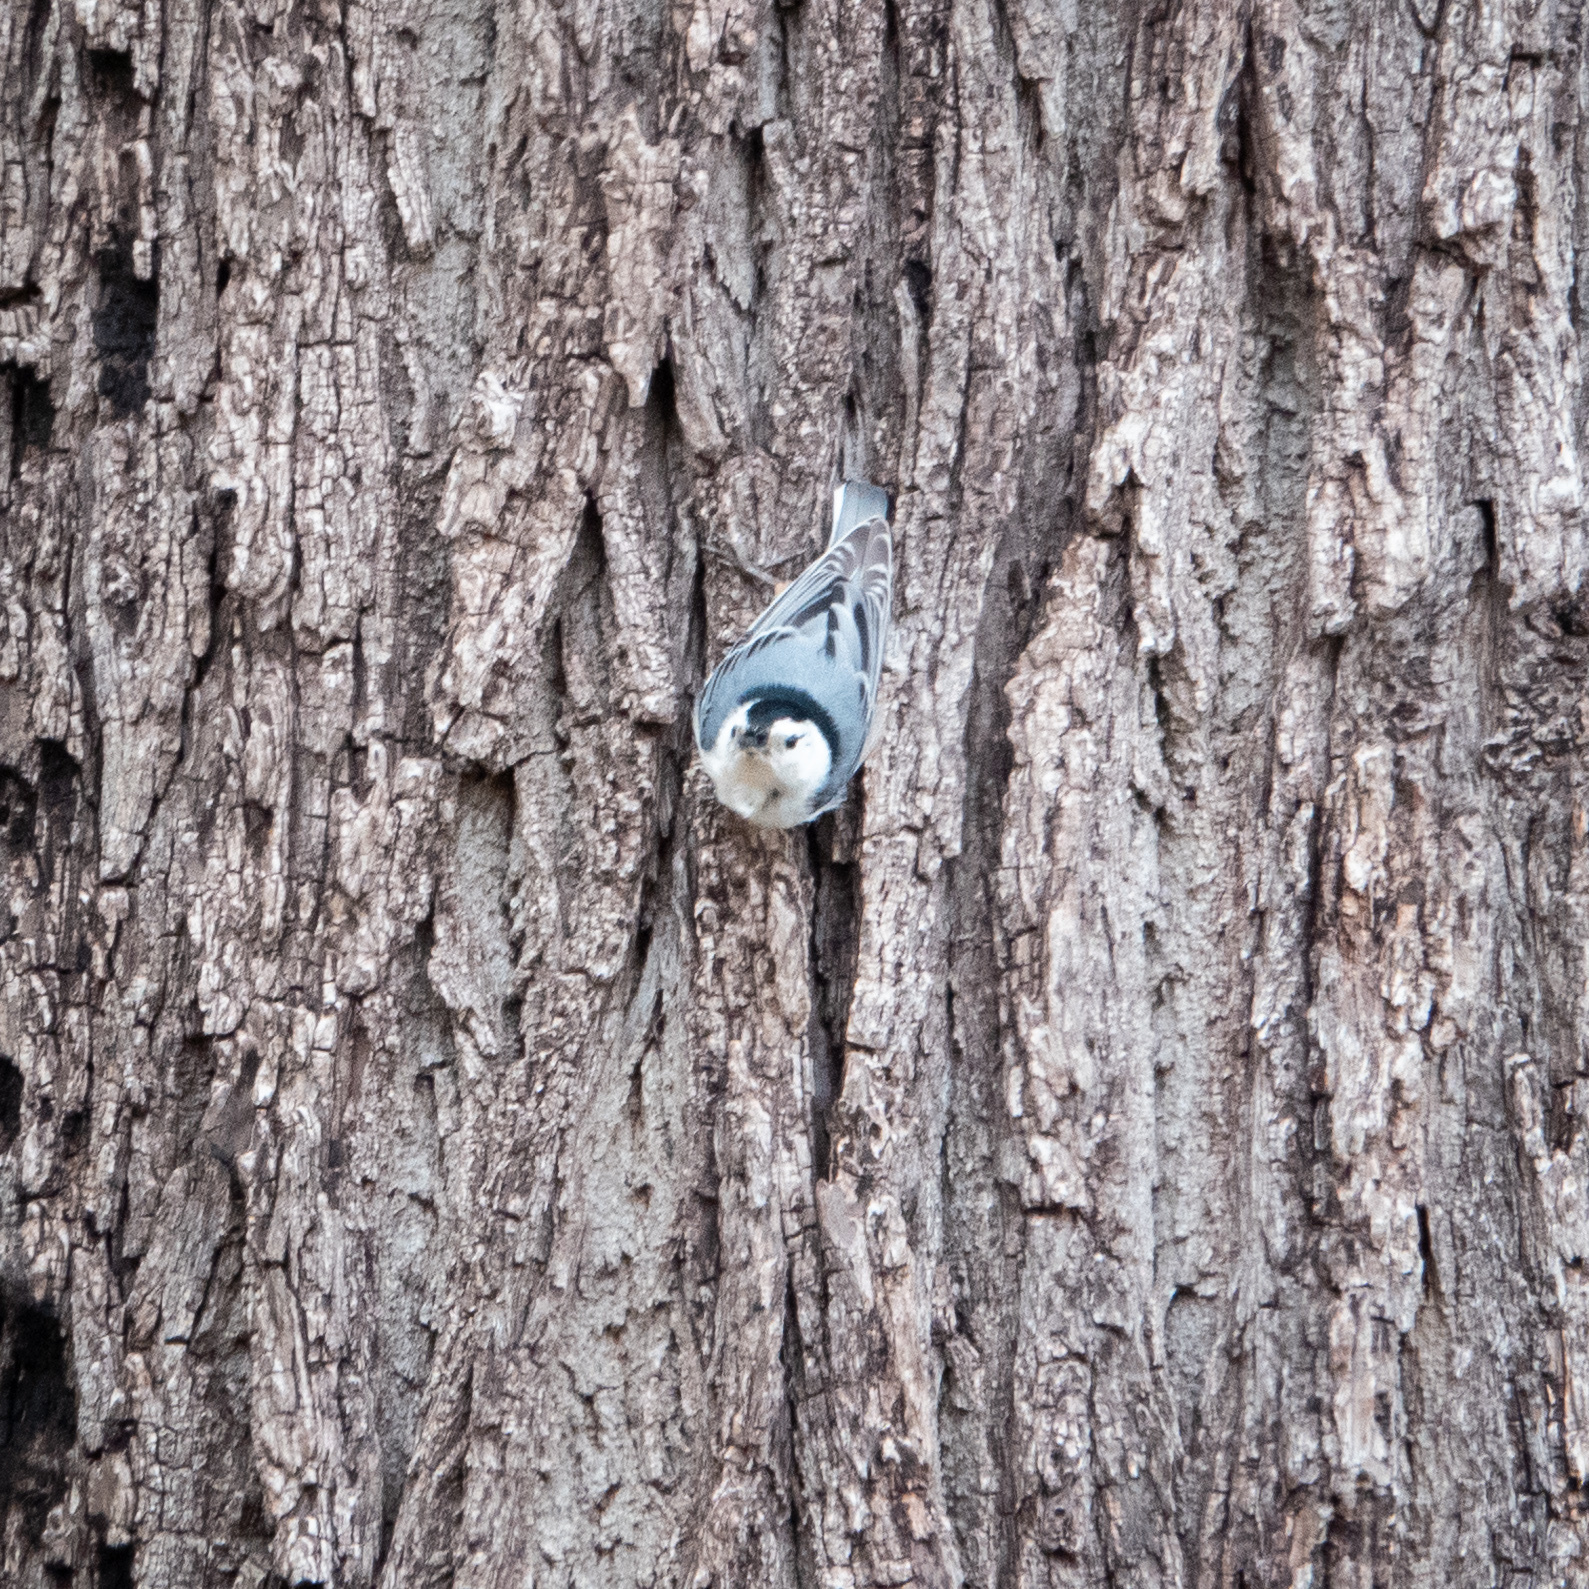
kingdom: Animalia
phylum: Chordata
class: Aves
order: Passeriformes
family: Sittidae
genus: Sitta
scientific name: Sitta carolinensis
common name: White-breasted nuthatch
